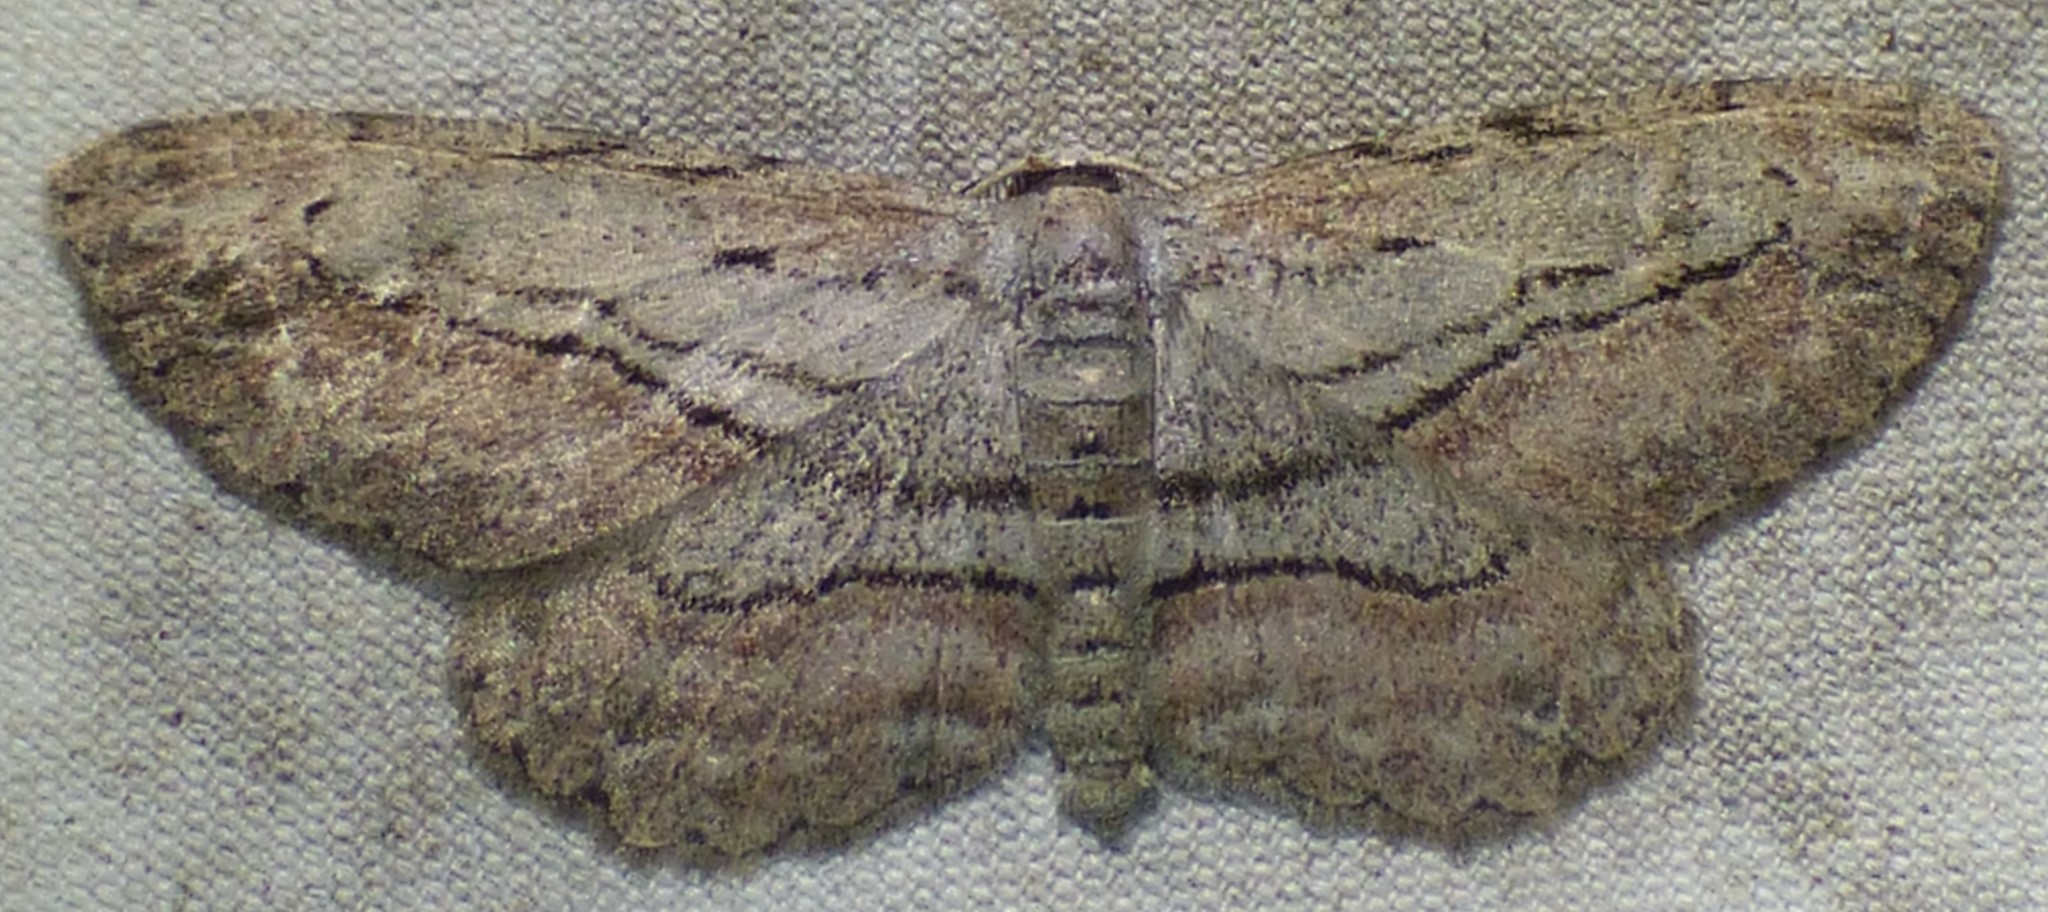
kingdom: Animalia
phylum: Arthropoda
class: Insecta
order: Lepidoptera
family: Geometridae
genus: Glena
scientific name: Glena plumosaria
